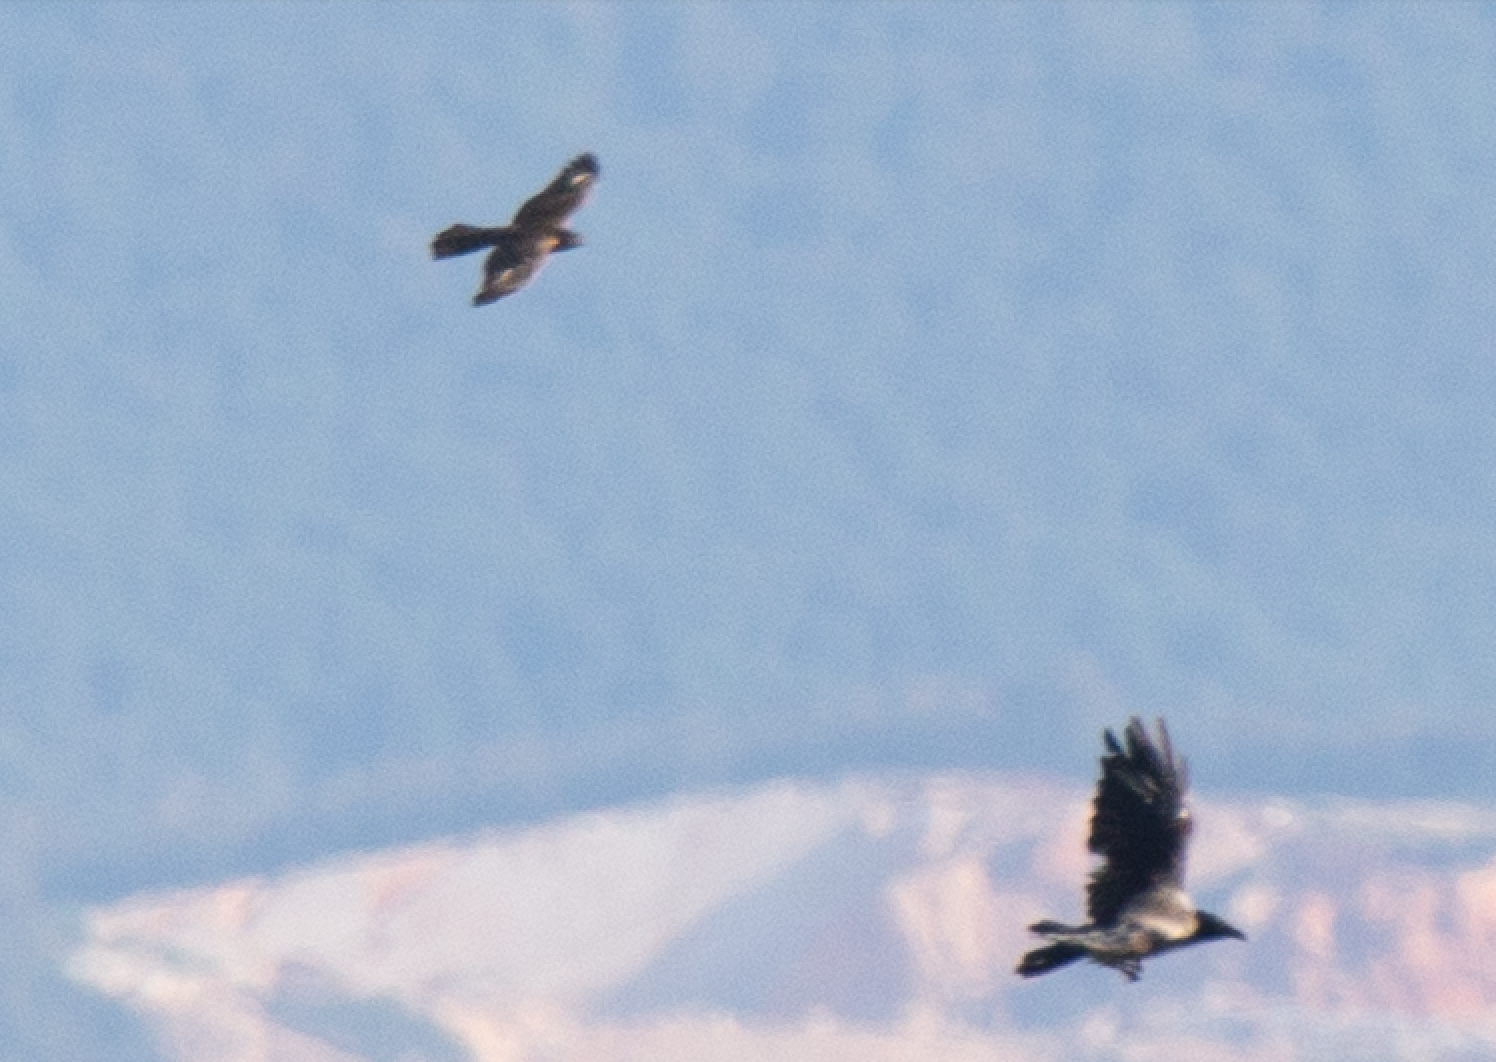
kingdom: Animalia
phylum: Chordata
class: Aves
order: Accipitriformes
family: Accipitridae
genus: Accipiter
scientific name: Accipiter nisus
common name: Eurasian sparrowhawk
